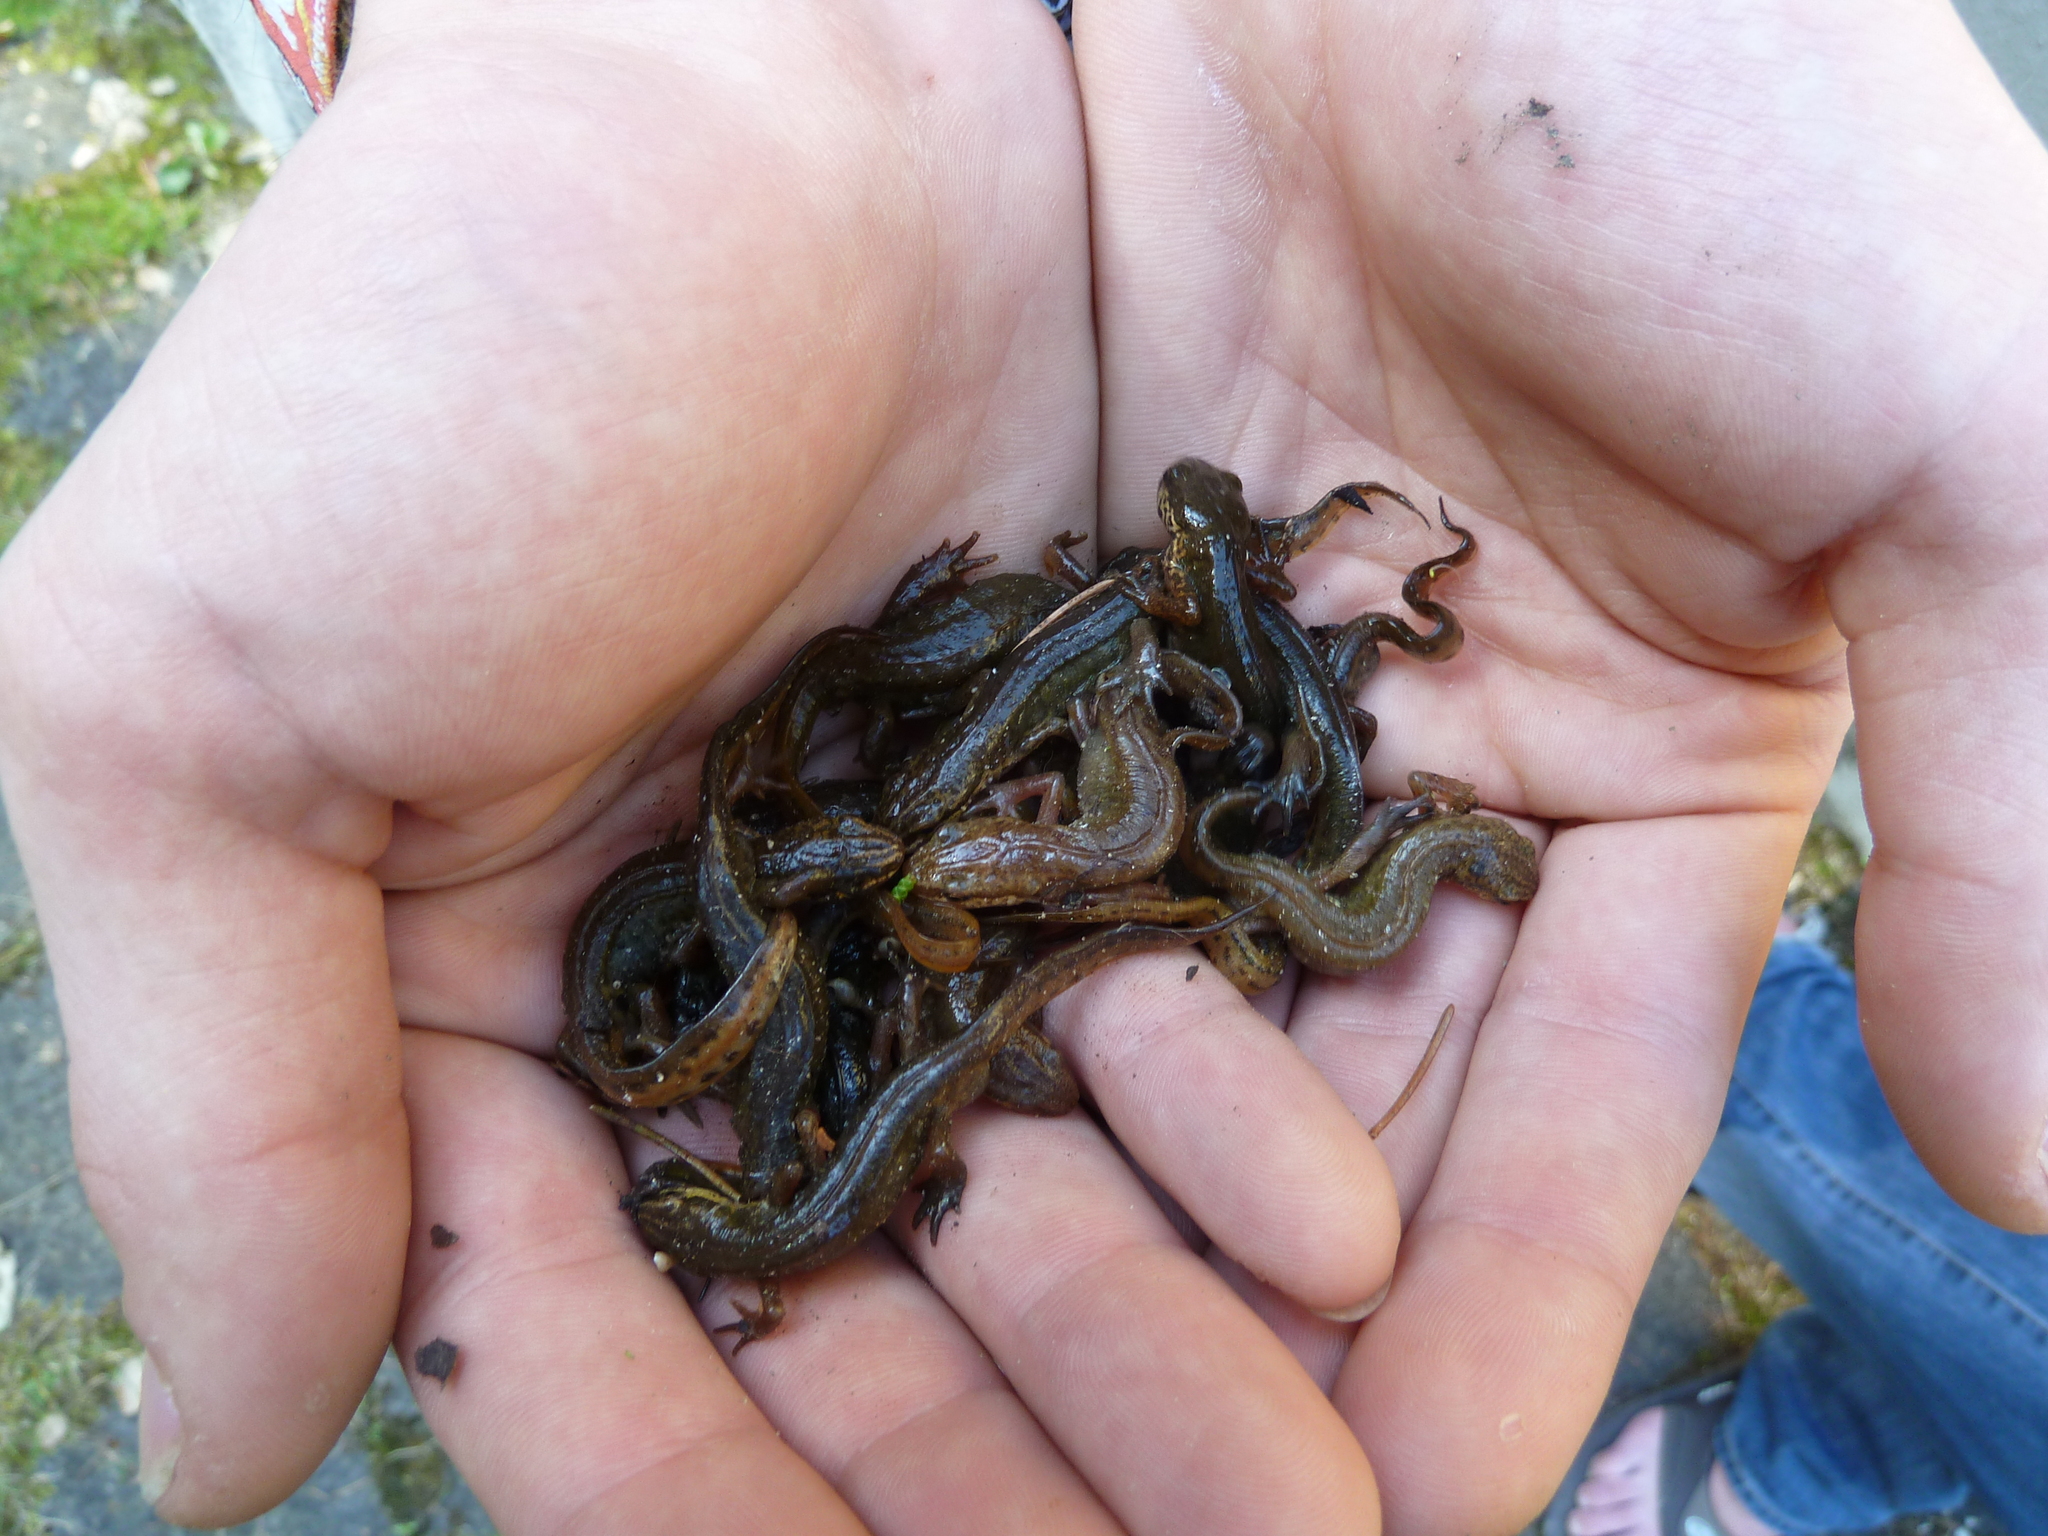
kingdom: Animalia
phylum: Chordata
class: Amphibia
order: Caudata
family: Salamandridae
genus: Lissotriton
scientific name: Lissotriton helveticus
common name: Palmate newt
